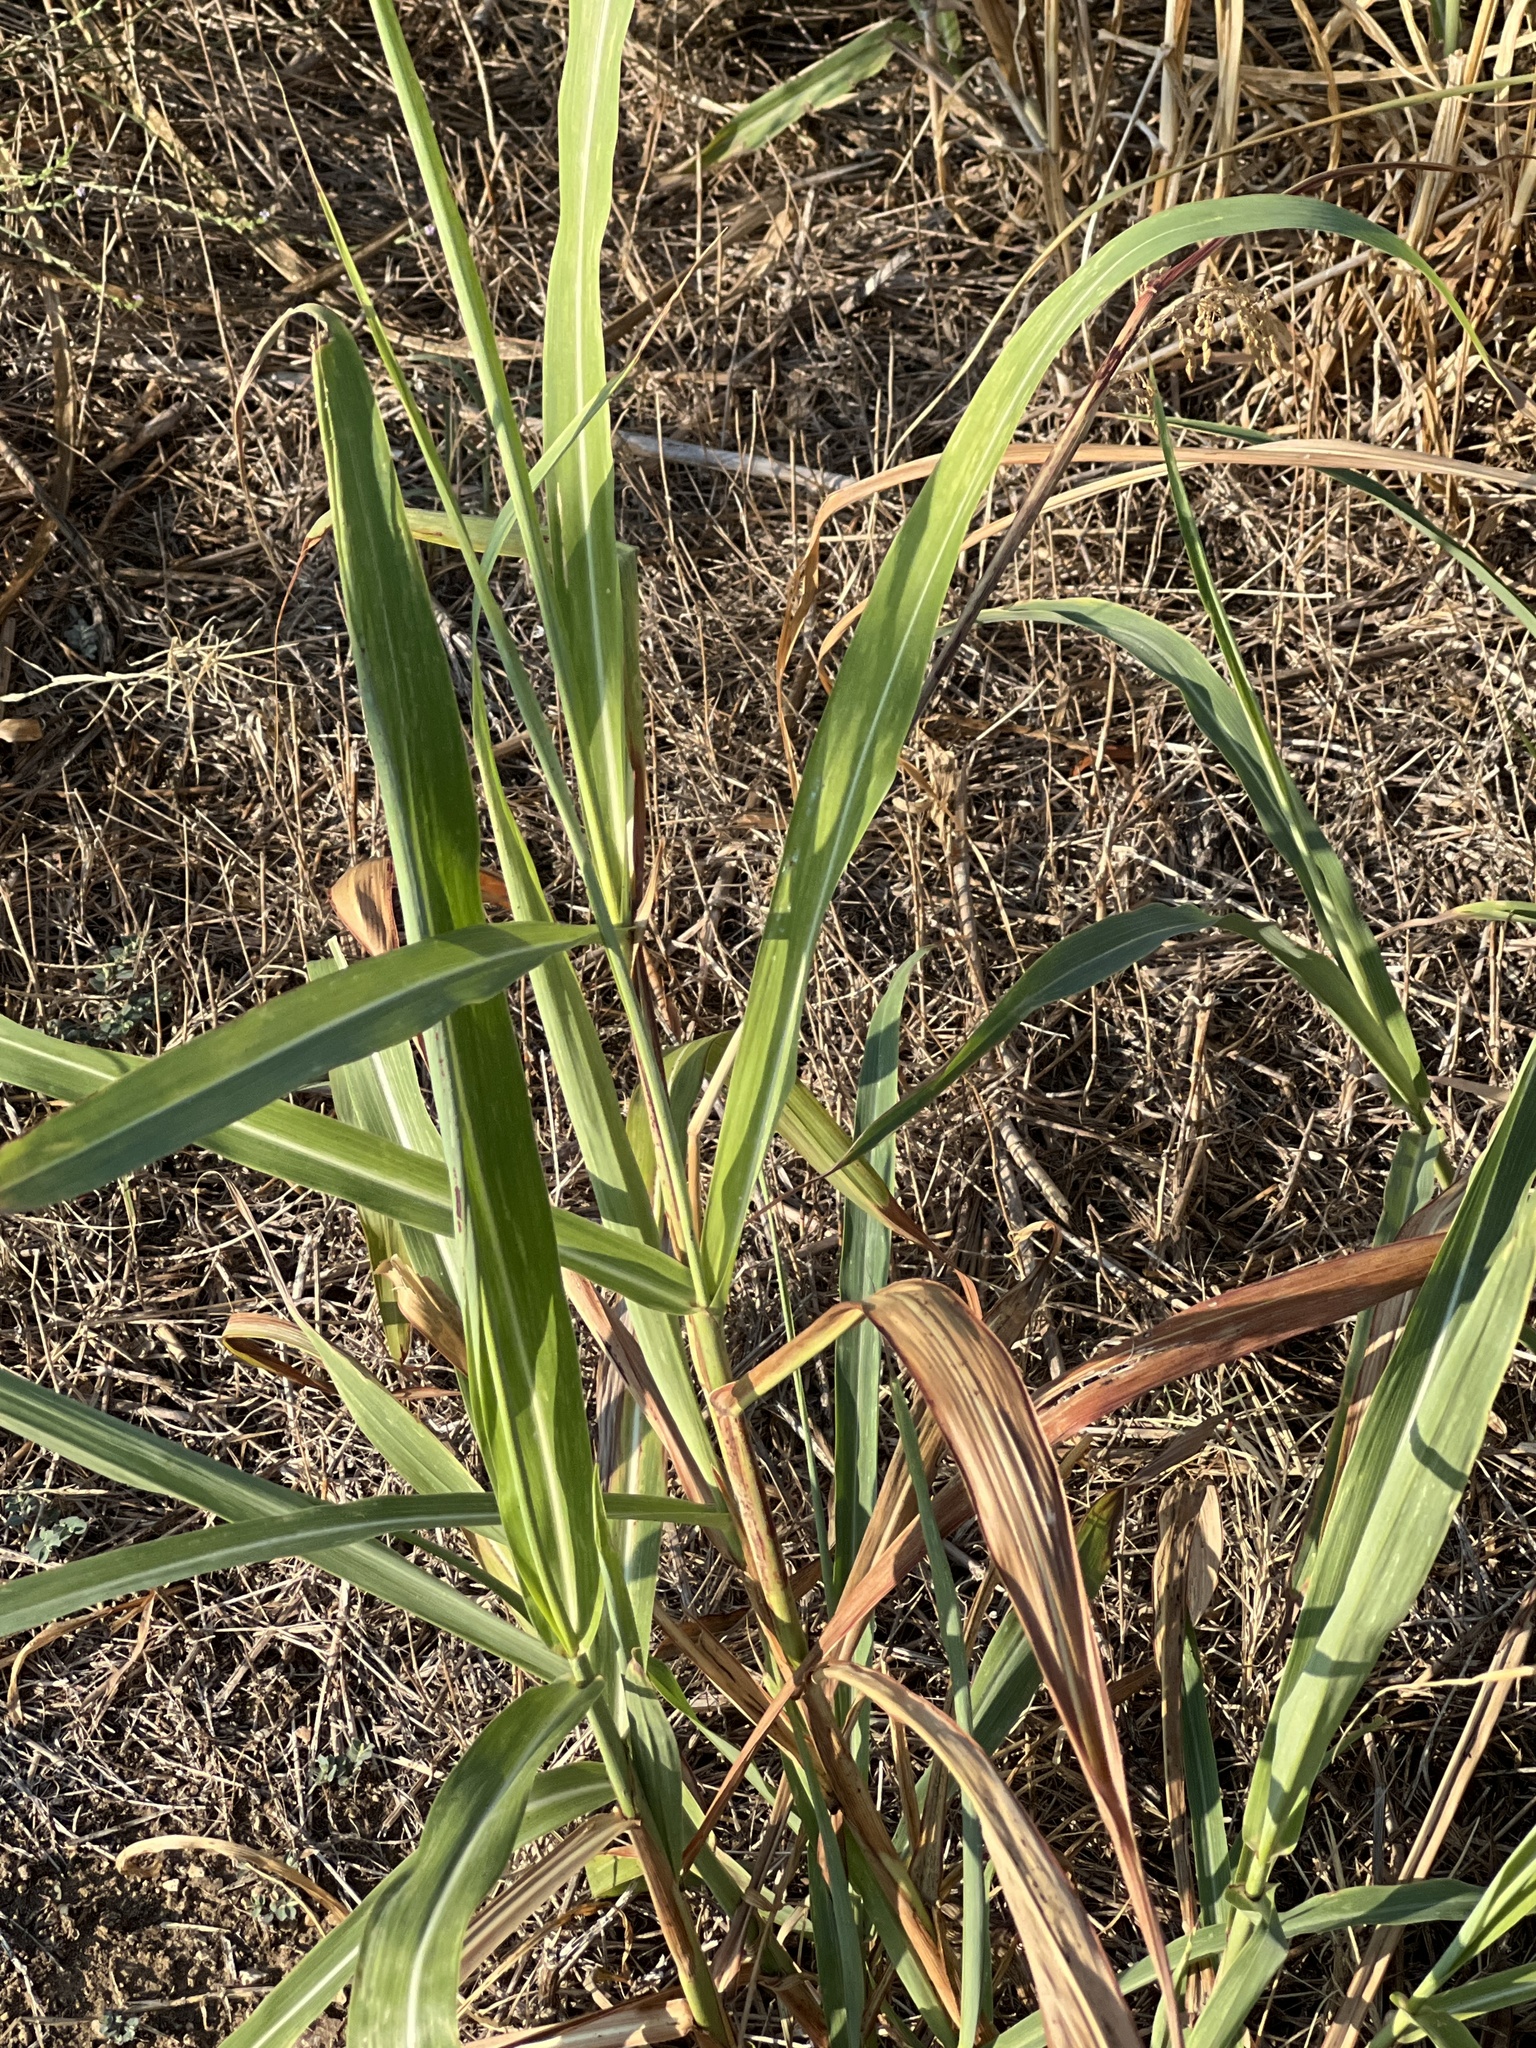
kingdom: Plantae
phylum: Tracheophyta
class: Liliopsida
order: Poales
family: Poaceae
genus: Sorghum
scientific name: Sorghum halepense
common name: Johnson-grass
